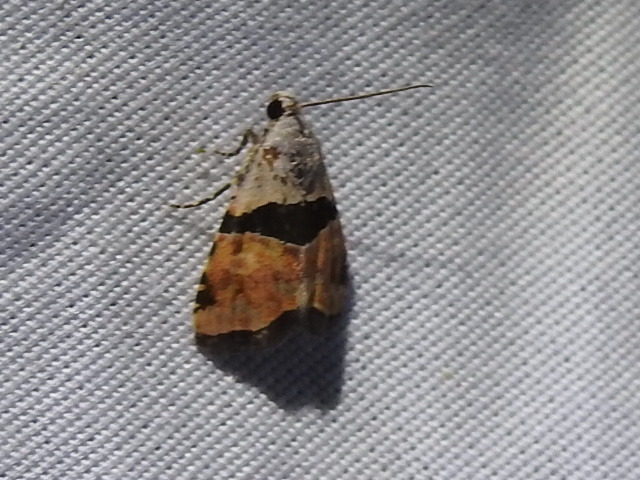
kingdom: Animalia
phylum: Arthropoda
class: Insecta
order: Lepidoptera
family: Noctuidae
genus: Cobubatha
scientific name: Cobubatha lixiva
